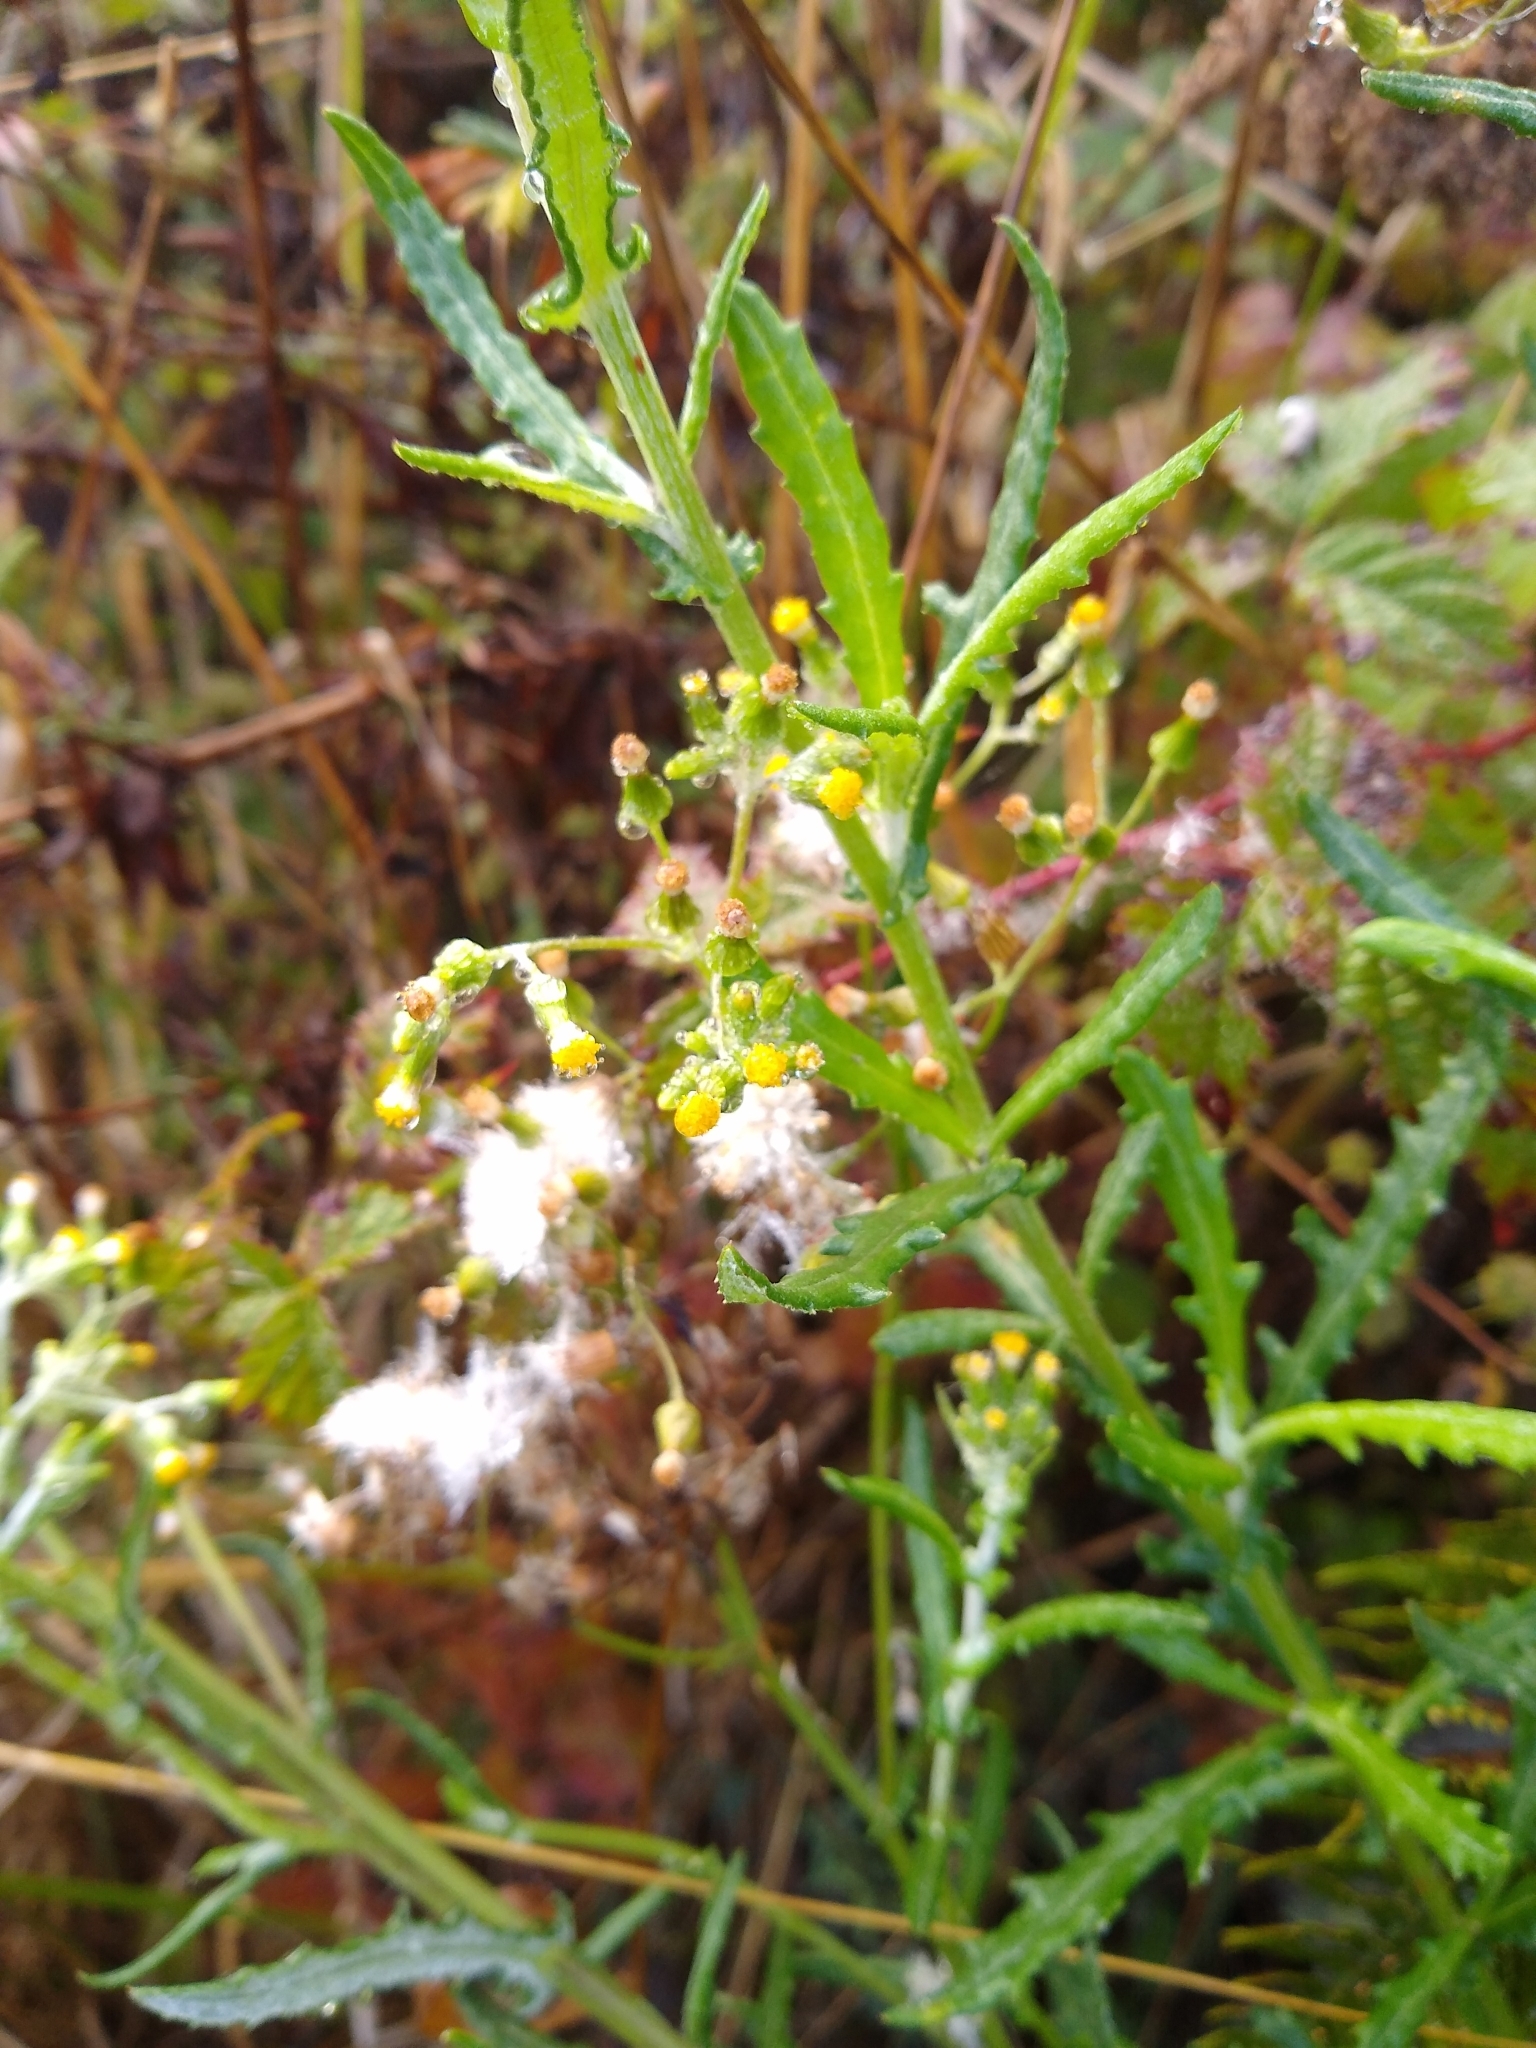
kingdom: Plantae
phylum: Tracheophyta
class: Magnoliopsida
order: Asterales
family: Asteraceae
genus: Senecio
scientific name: Senecio glomeratus
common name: Cutleaf burnweed
